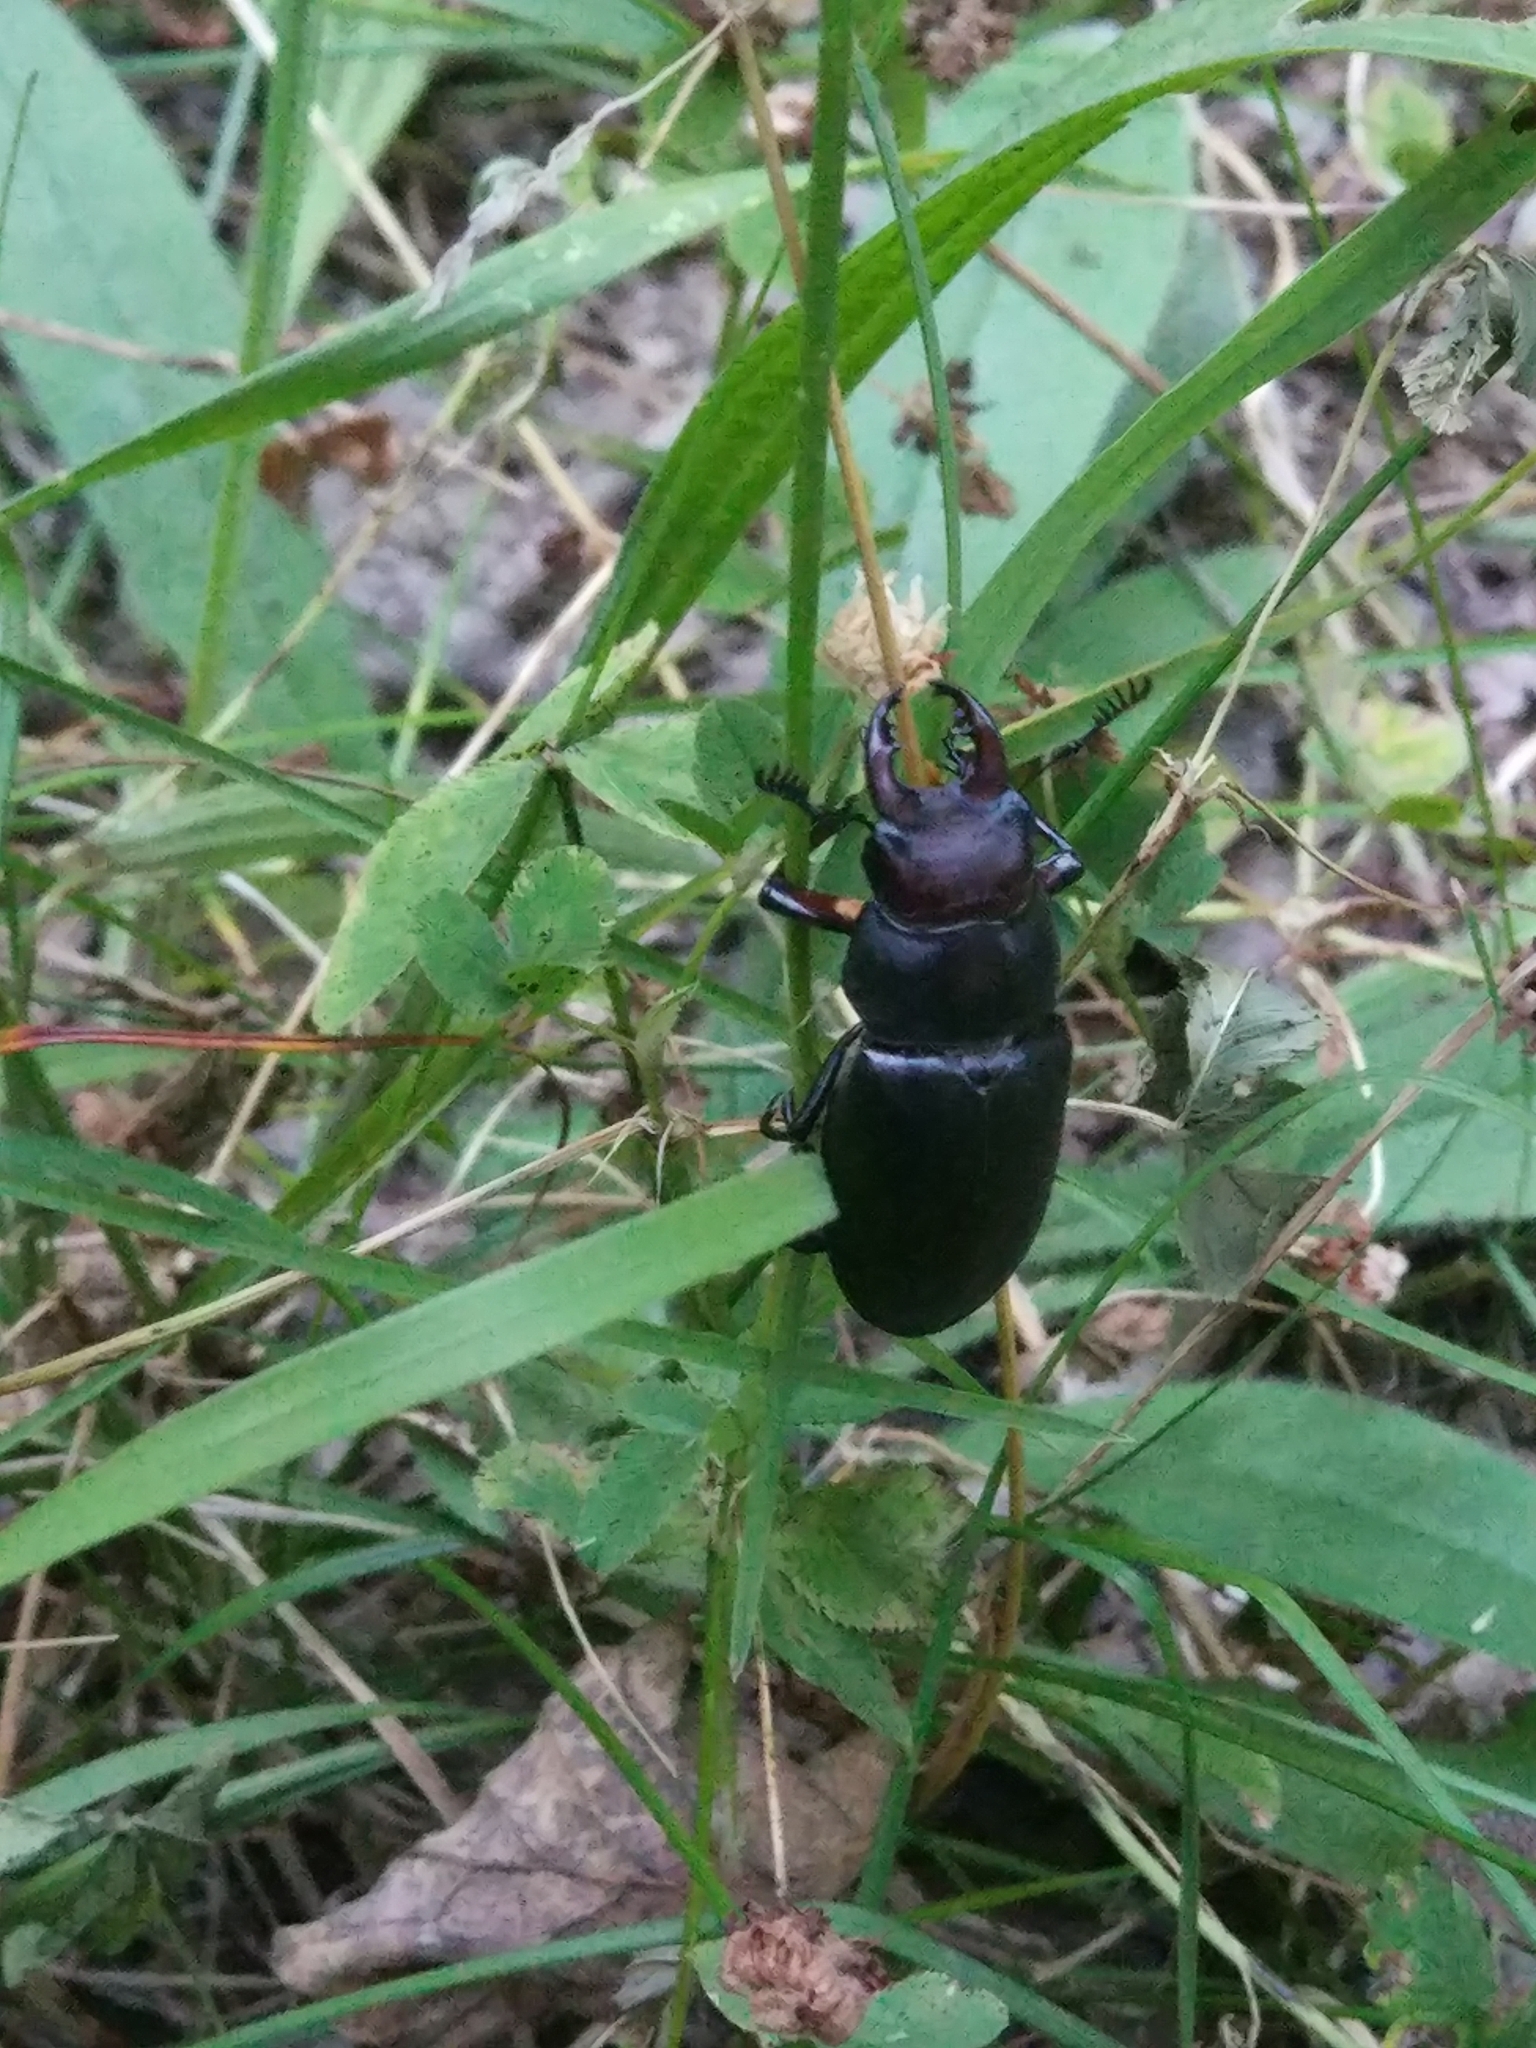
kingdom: Animalia
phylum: Arthropoda
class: Insecta
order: Coleoptera
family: Lucanidae
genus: Lucanus
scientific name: Lucanus ibericus
